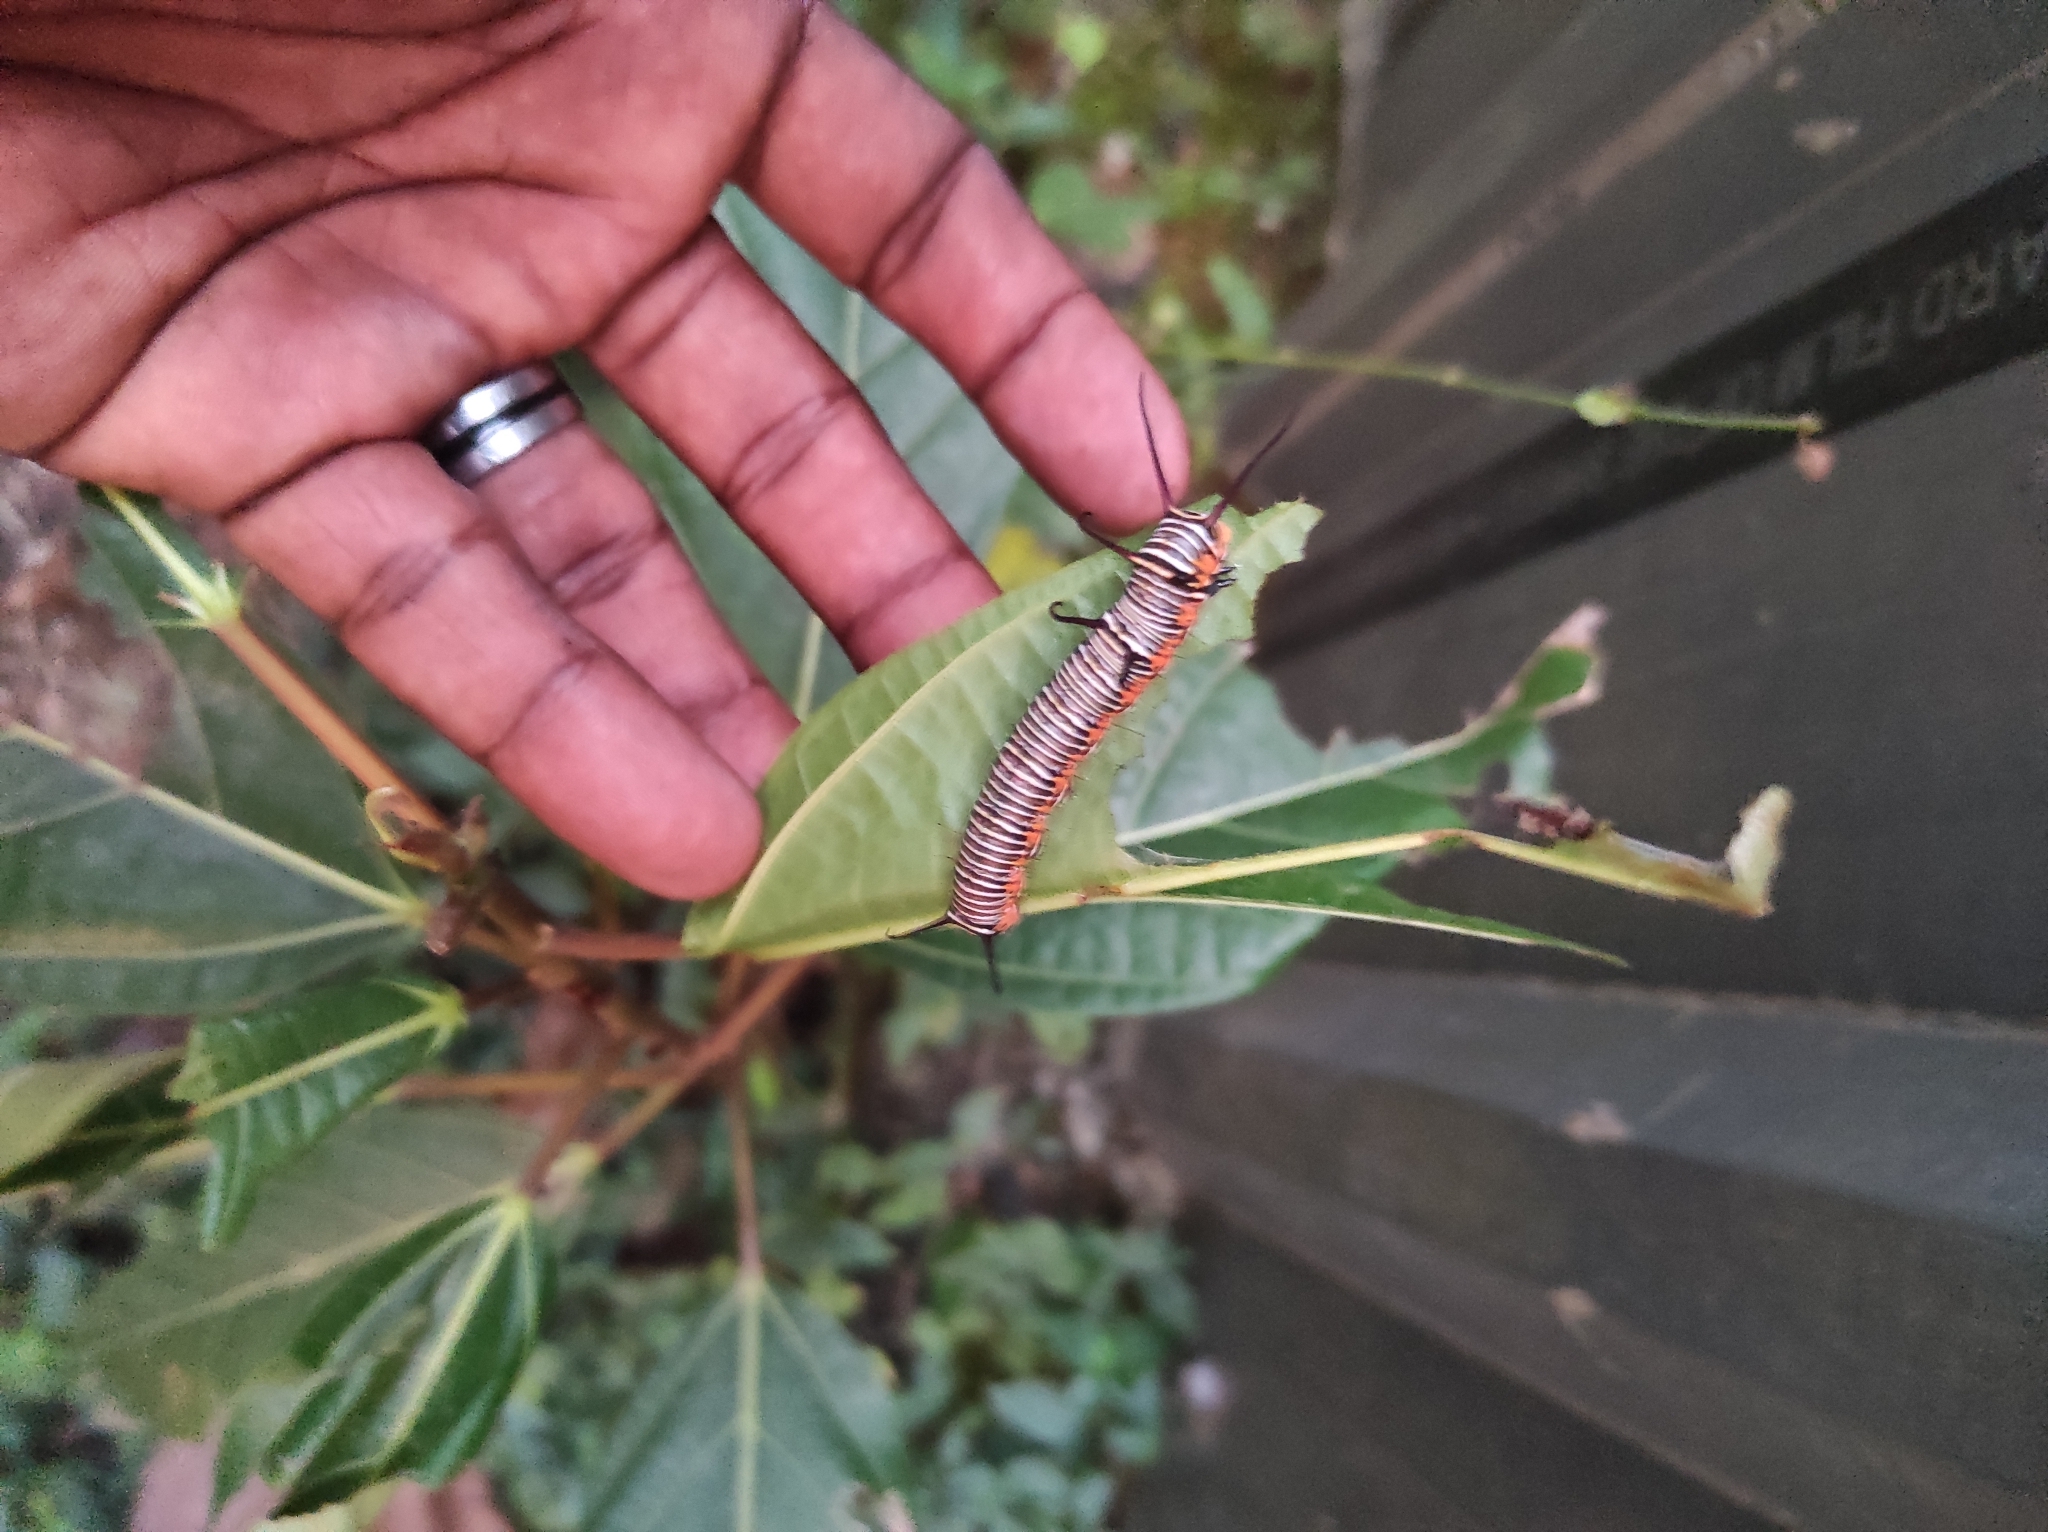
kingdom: Animalia
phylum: Arthropoda
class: Insecta
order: Lepidoptera
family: Nymphalidae
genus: Euploea
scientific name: Euploea core
